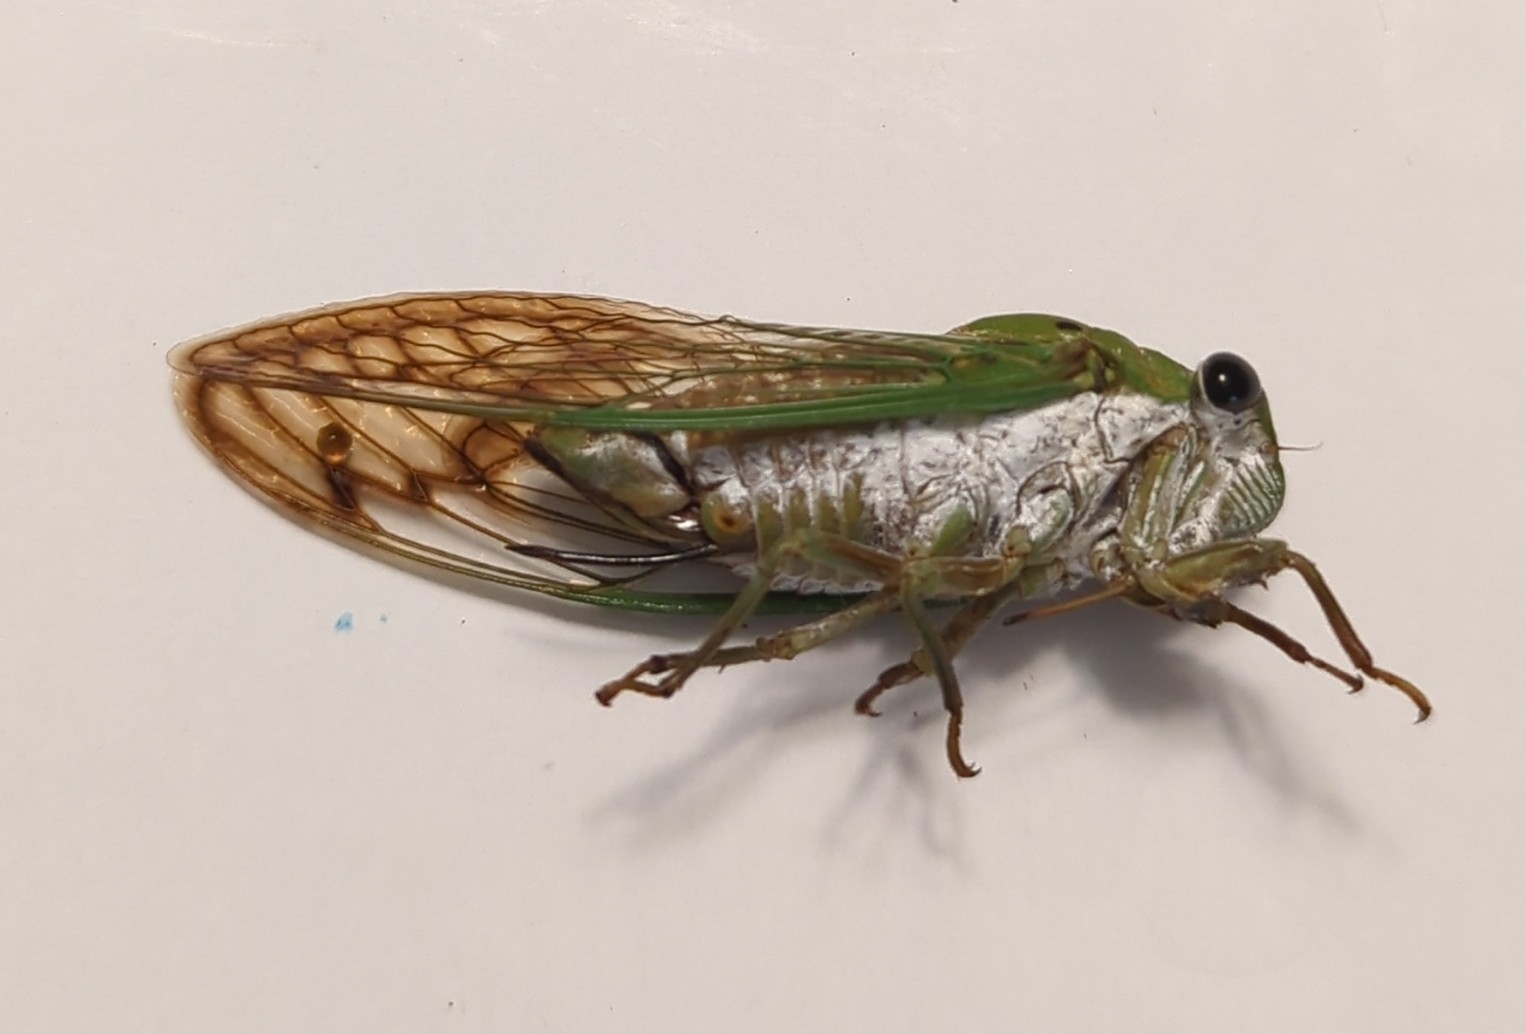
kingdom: Animalia
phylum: Arthropoda
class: Insecta
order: Hemiptera
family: Cicadidae
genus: Neotibicen
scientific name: Neotibicen superbus
